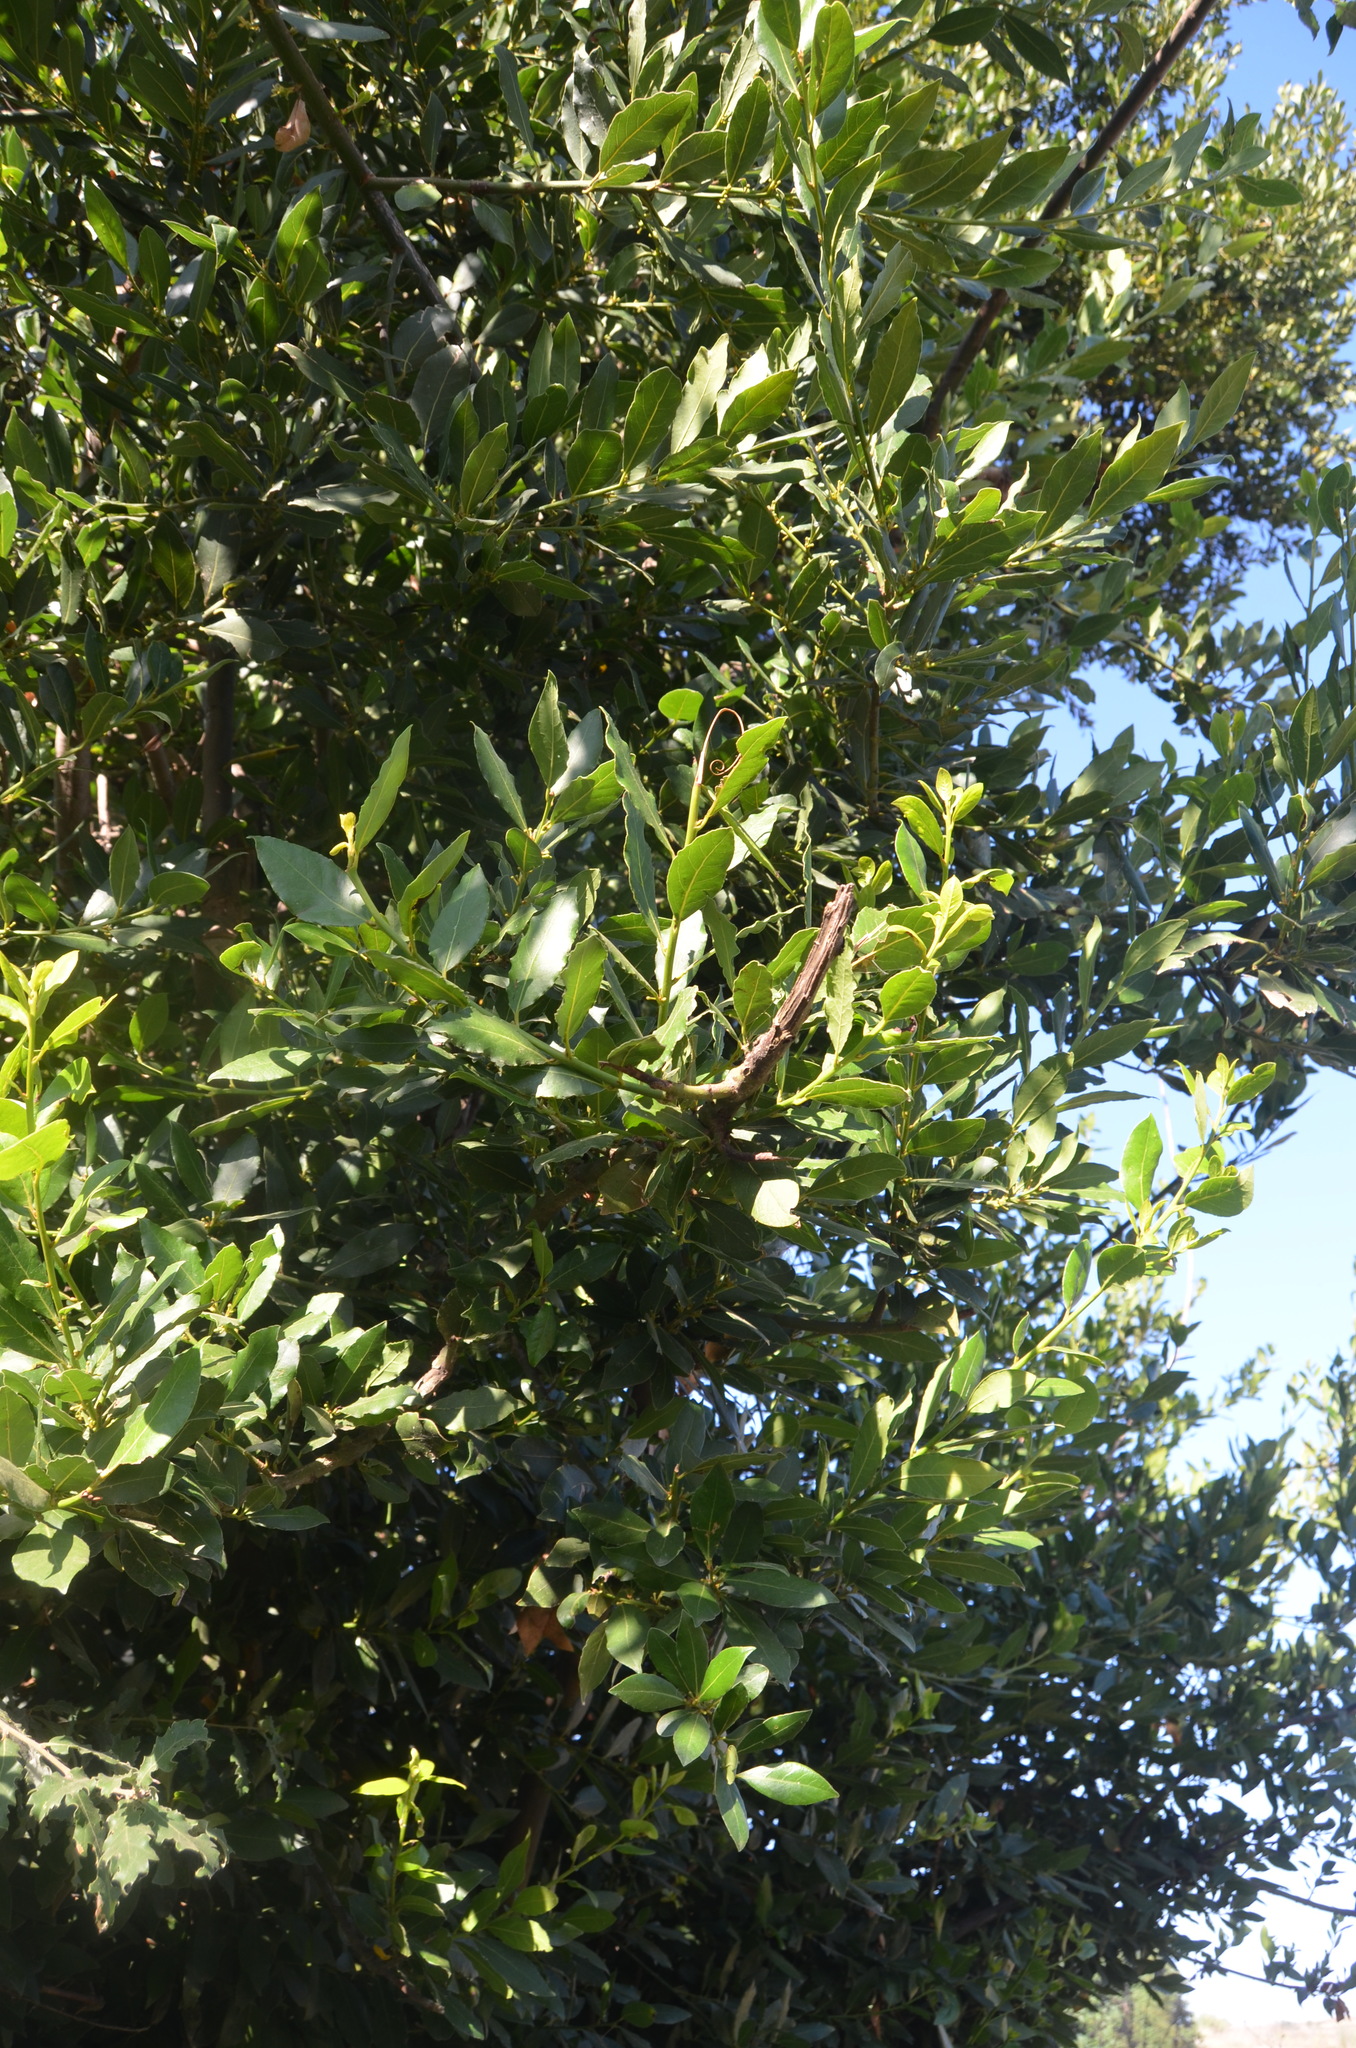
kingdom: Plantae
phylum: Tracheophyta
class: Magnoliopsida
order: Laurales
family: Lauraceae
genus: Laurus
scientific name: Laurus nobilis
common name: Bay
